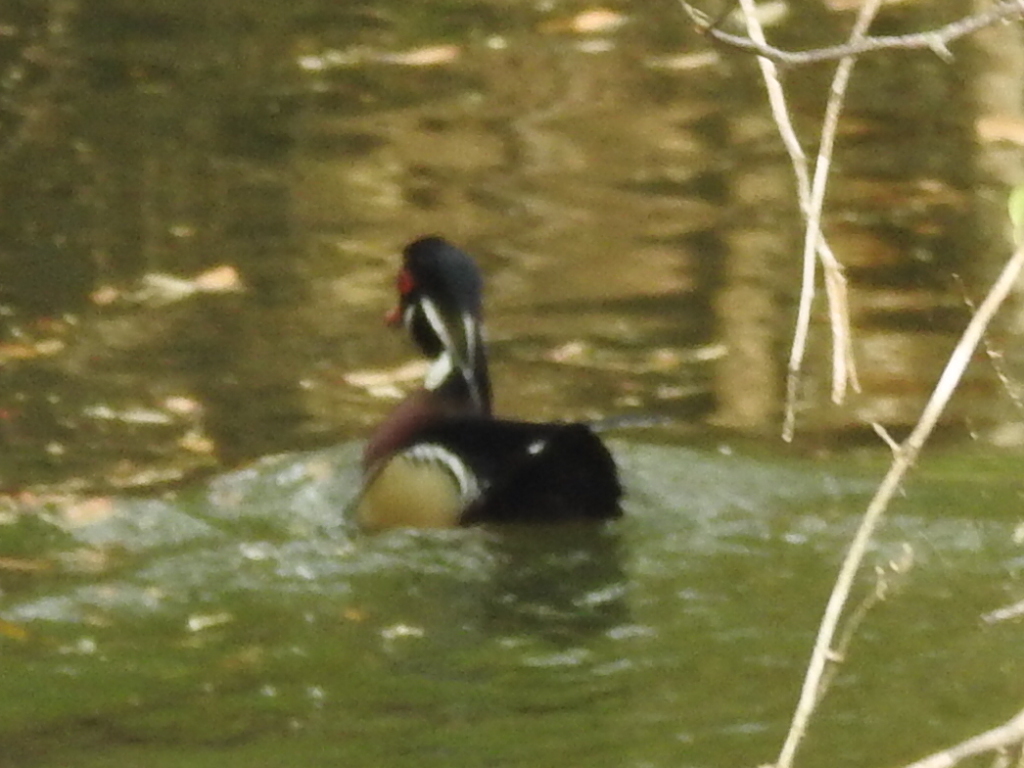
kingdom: Animalia
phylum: Chordata
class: Aves
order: Anseriformes
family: Anatidae
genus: Aix
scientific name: Aix sponsa
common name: Wood duck
